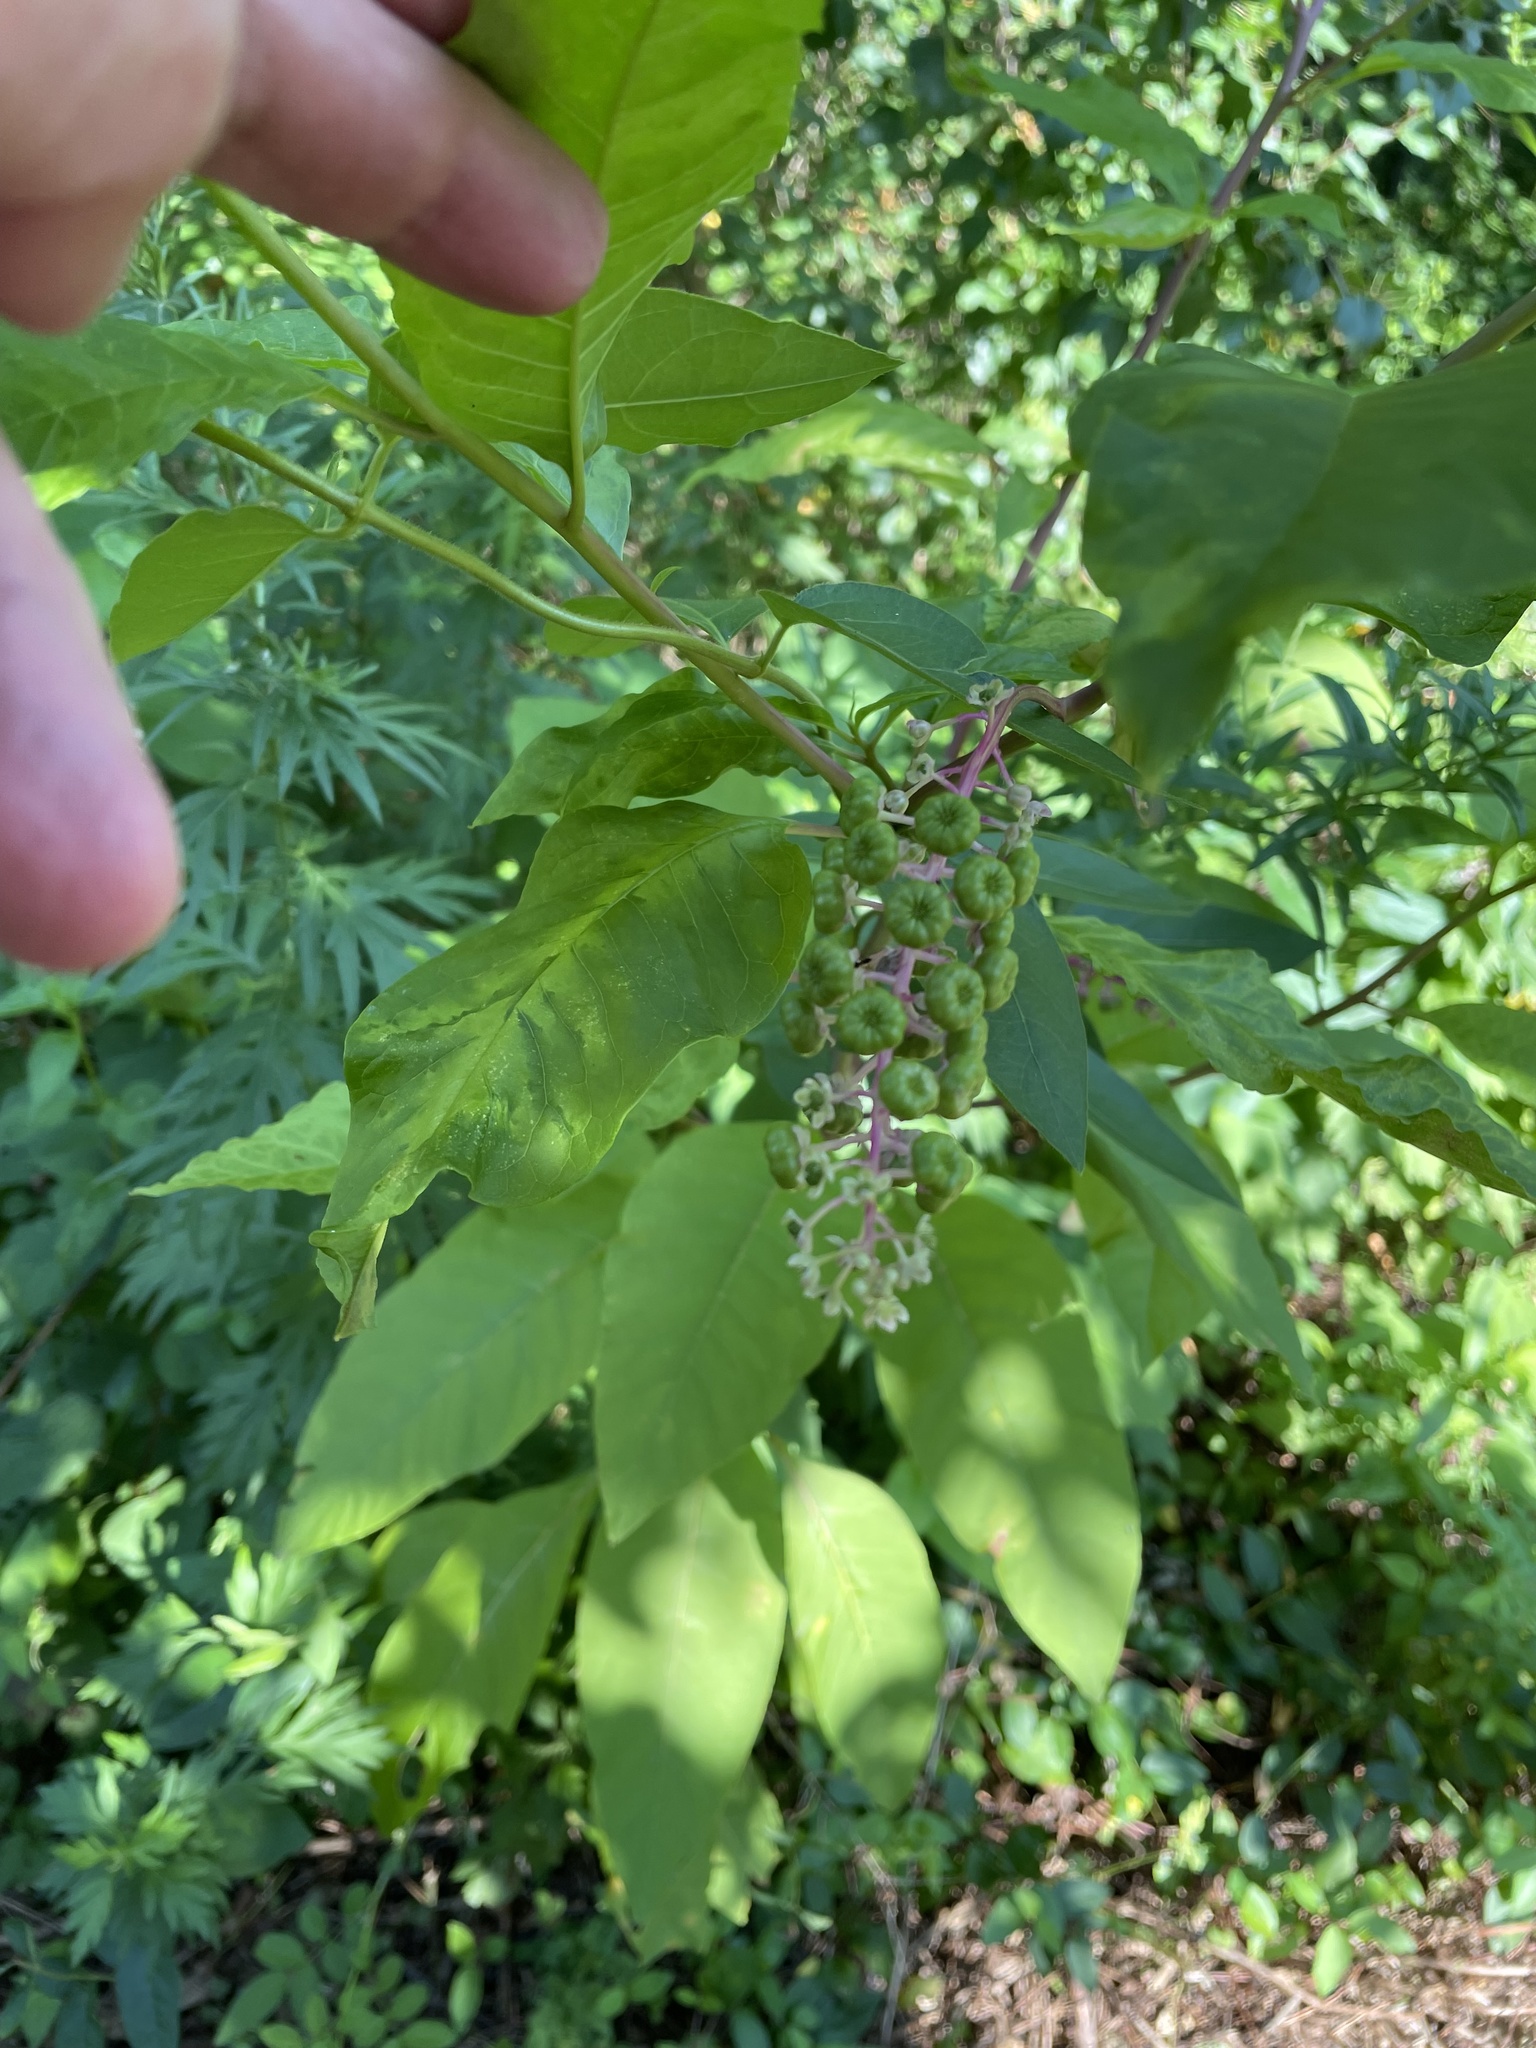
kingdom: Plantae
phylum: Tracheophyta
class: Magnoliopsida
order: Caryophyllales
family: Phytolaccaceae
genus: Phytolacca
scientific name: Phytolacca americana
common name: American pokeweed
